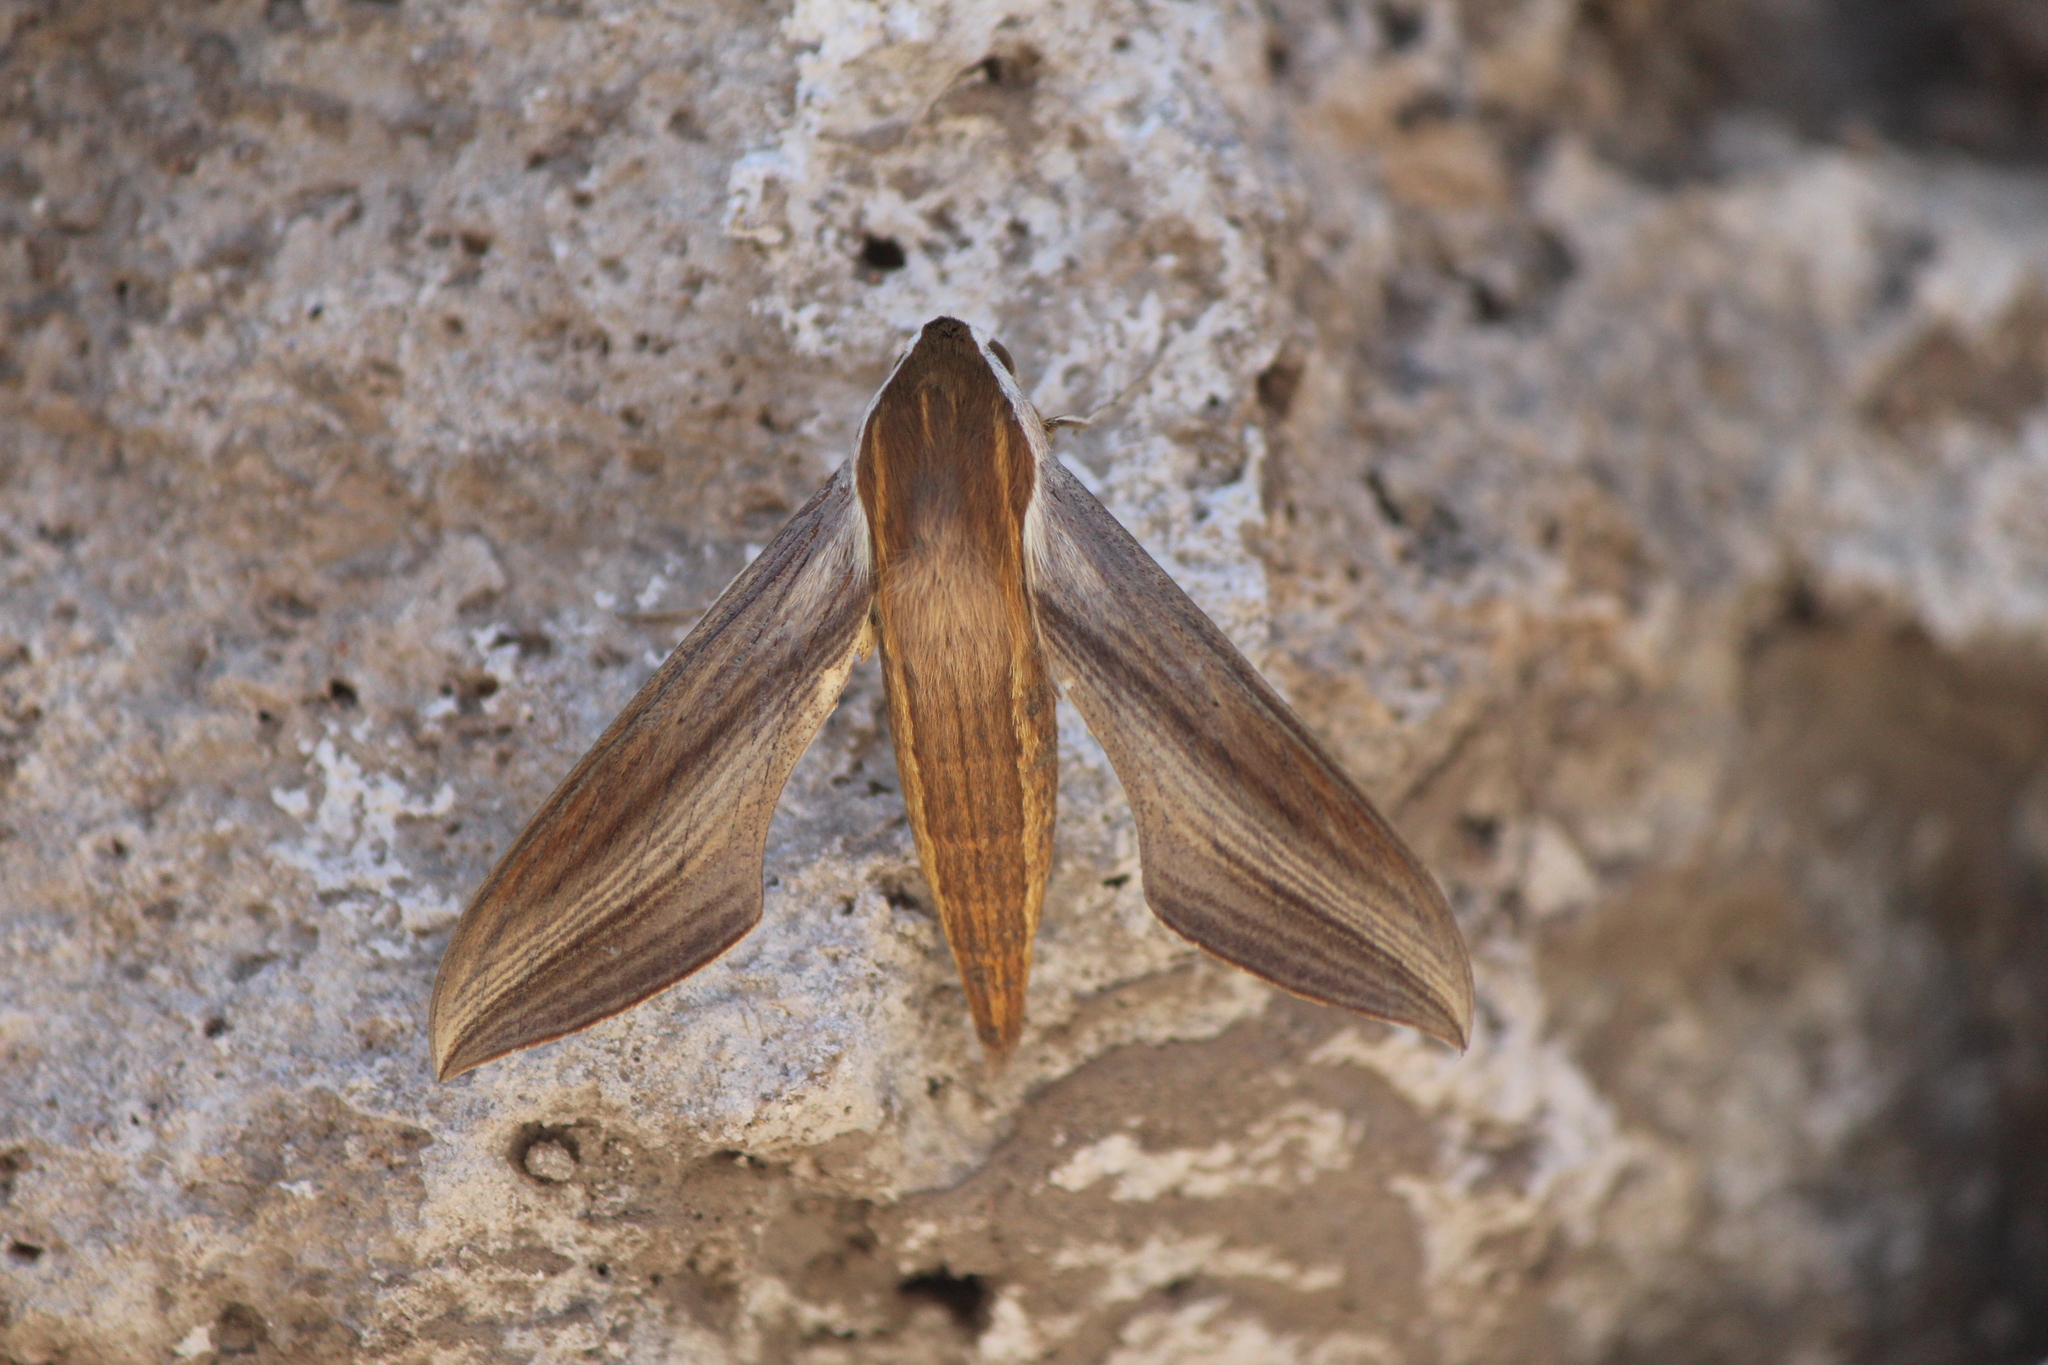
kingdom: Animalia
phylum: Arthropoda
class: Insecta
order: Lepidoptera
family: Sphingidae
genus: Xylophanes
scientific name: Xylophanes tersa
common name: Tersa sphinx
